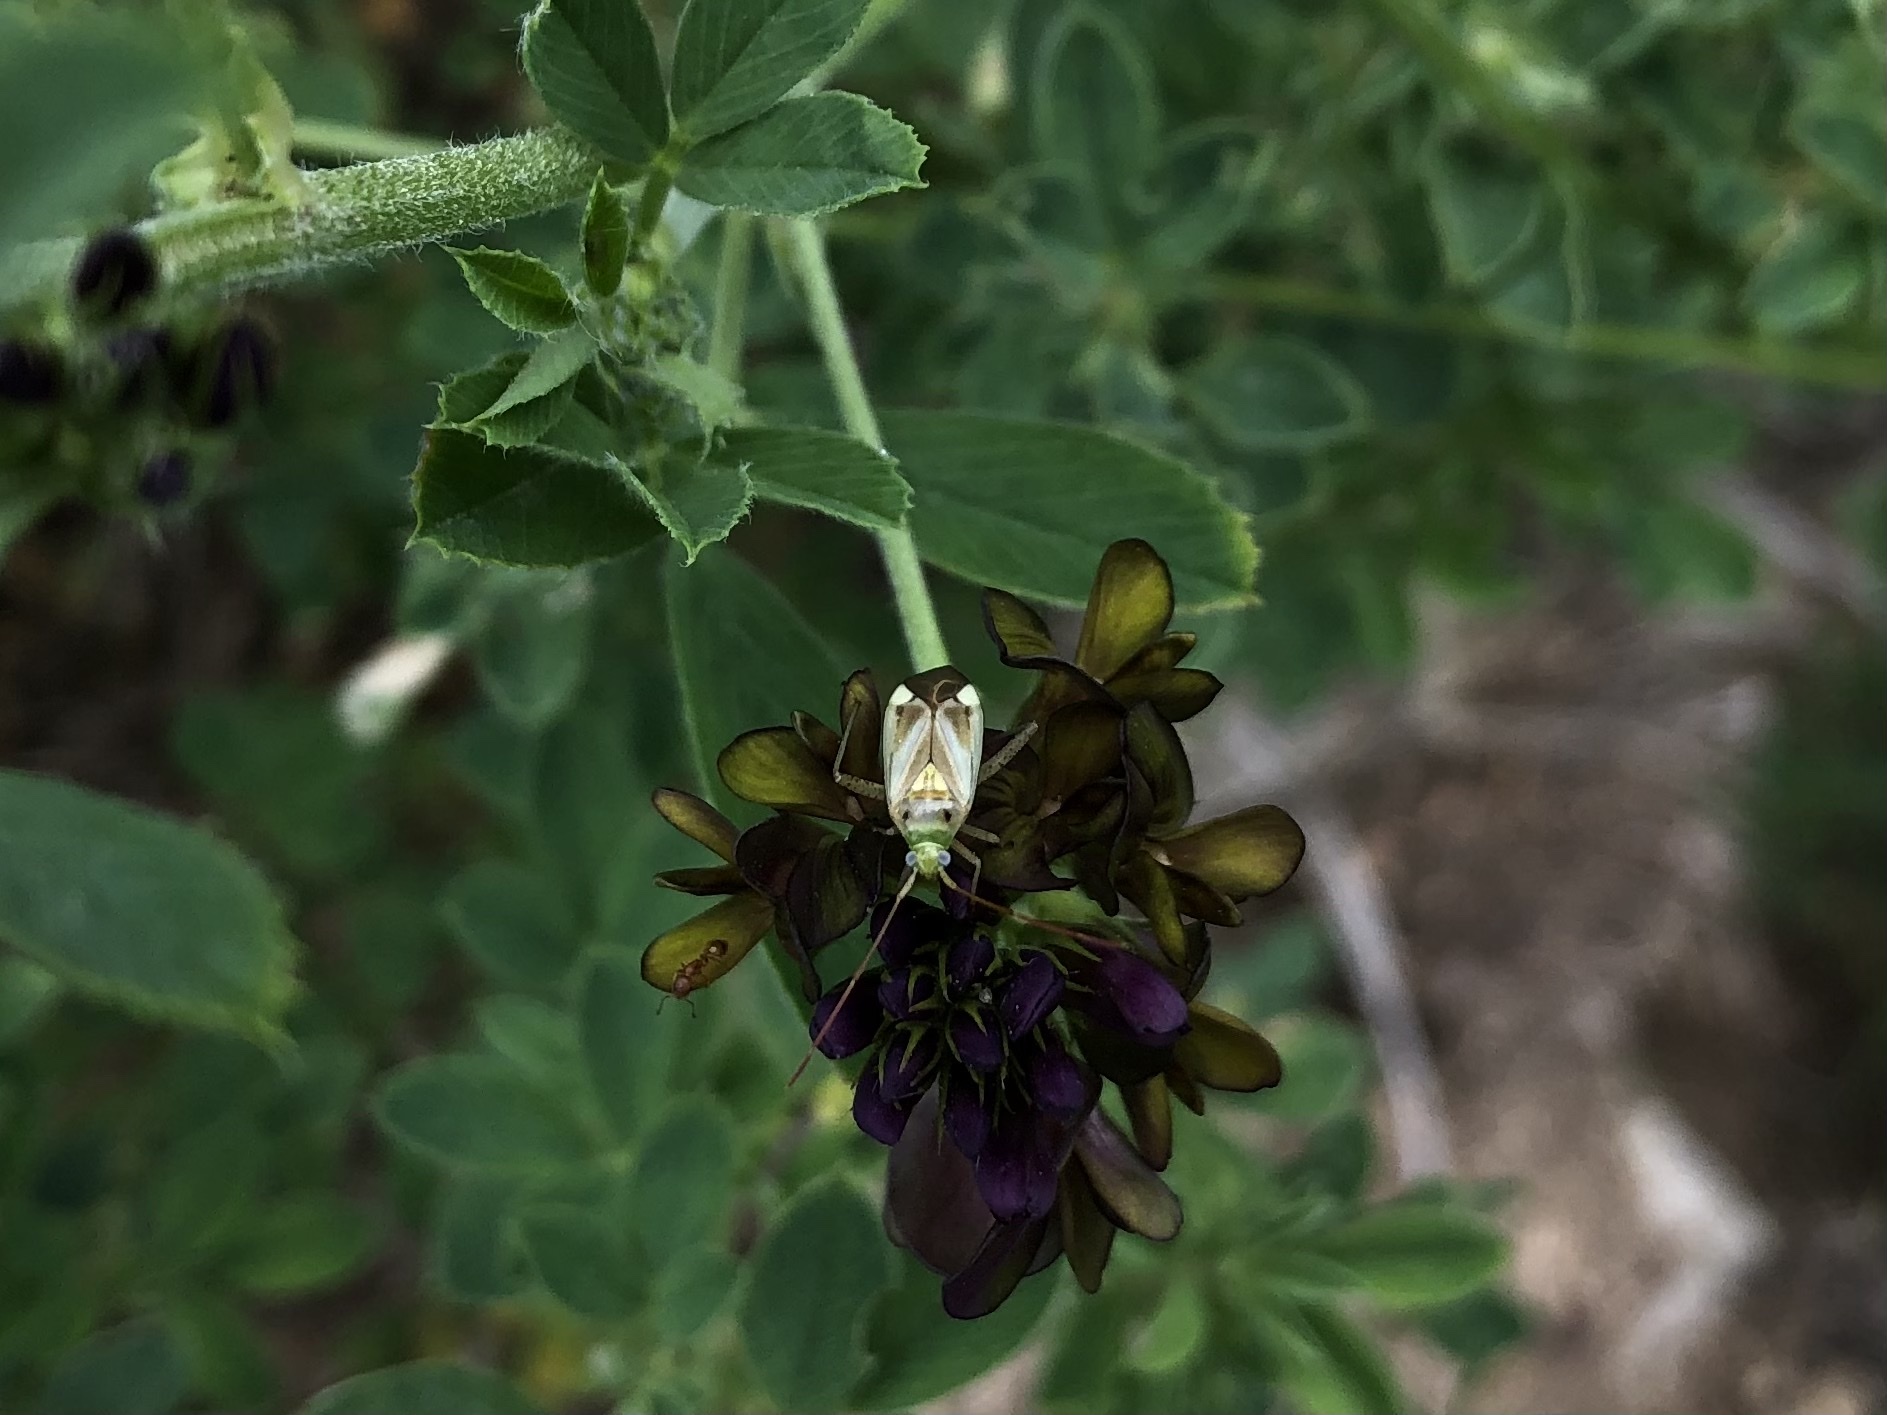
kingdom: Animalia
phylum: Arthropoda
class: Insecta
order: Hemiptera
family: Miridae
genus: Adelphocoris
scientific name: Adelphocoris lineolatus
